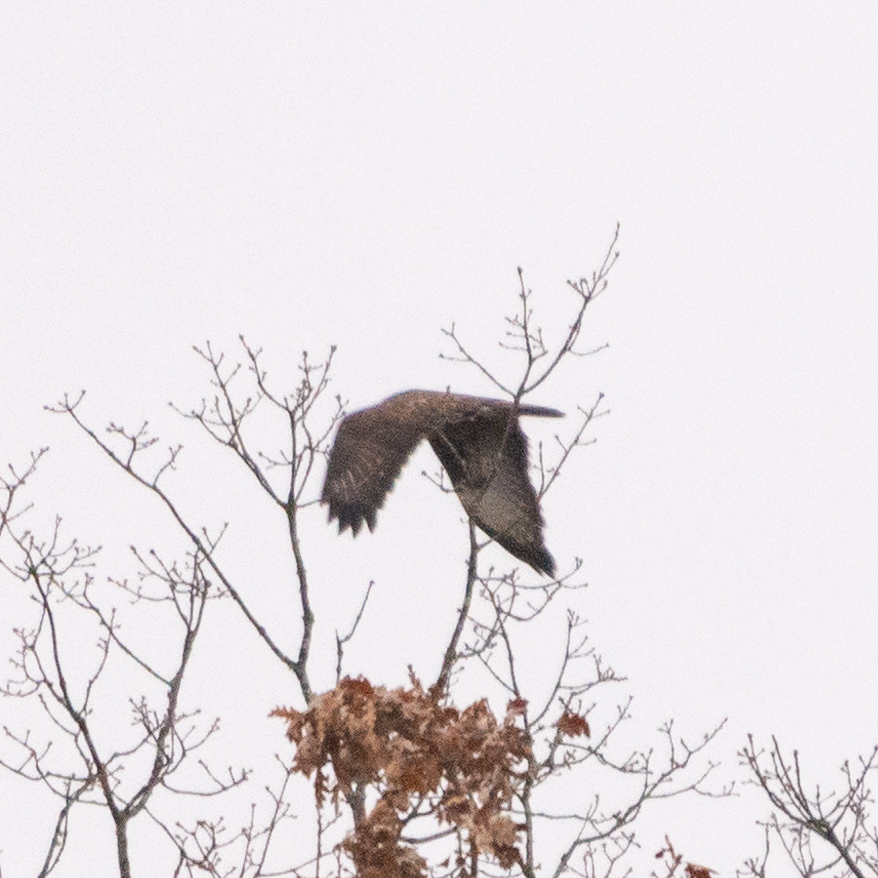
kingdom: Animalia
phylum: Chordata
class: Aves
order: Accipitriformes
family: Accipitridae
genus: Buteo
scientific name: Buteo buteo
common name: Common buzzard
